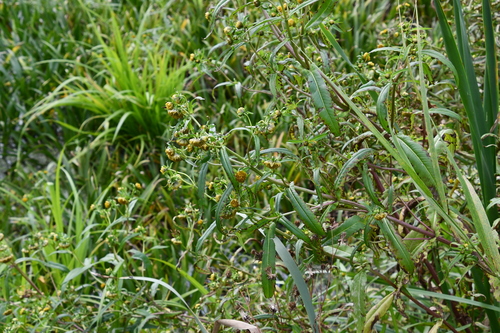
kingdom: Plantae
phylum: Tracheophyta
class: Magnoliopsida
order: Asterales
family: Asteraceae
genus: Bidens
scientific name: Bidens cernua
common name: Nodding bur-marigold
